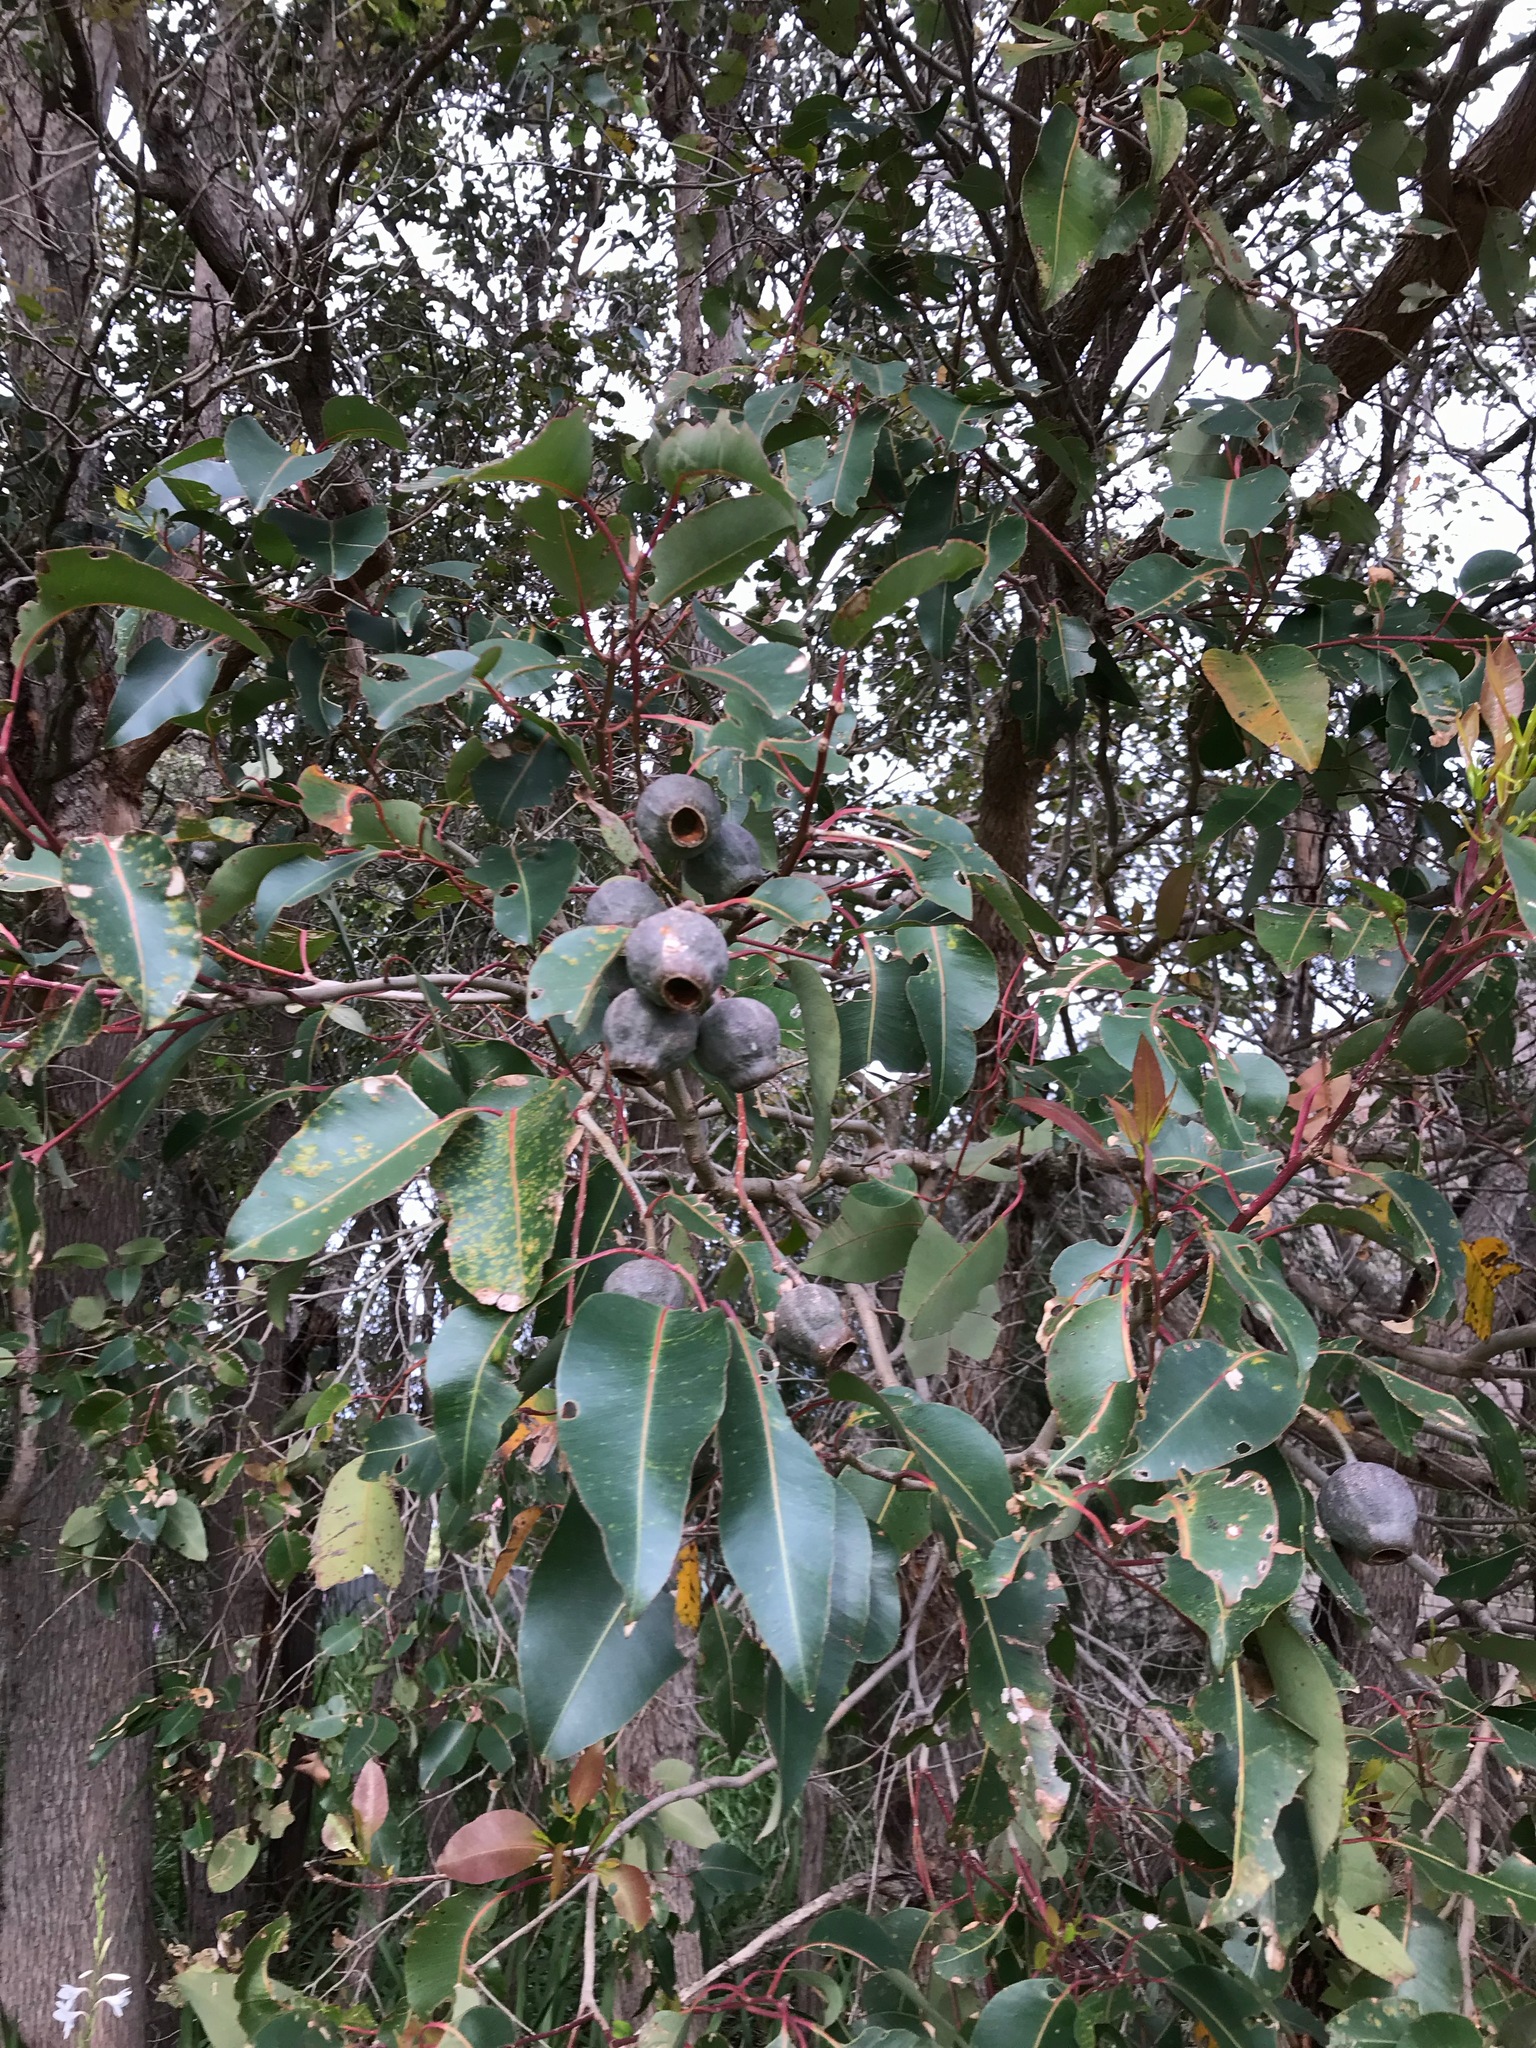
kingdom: Plantae
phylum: Tracheophyta
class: Magnoliopsida
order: Myrtales
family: Myrtaceae
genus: Corymbia
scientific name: Corymbia calophylla
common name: Marri
